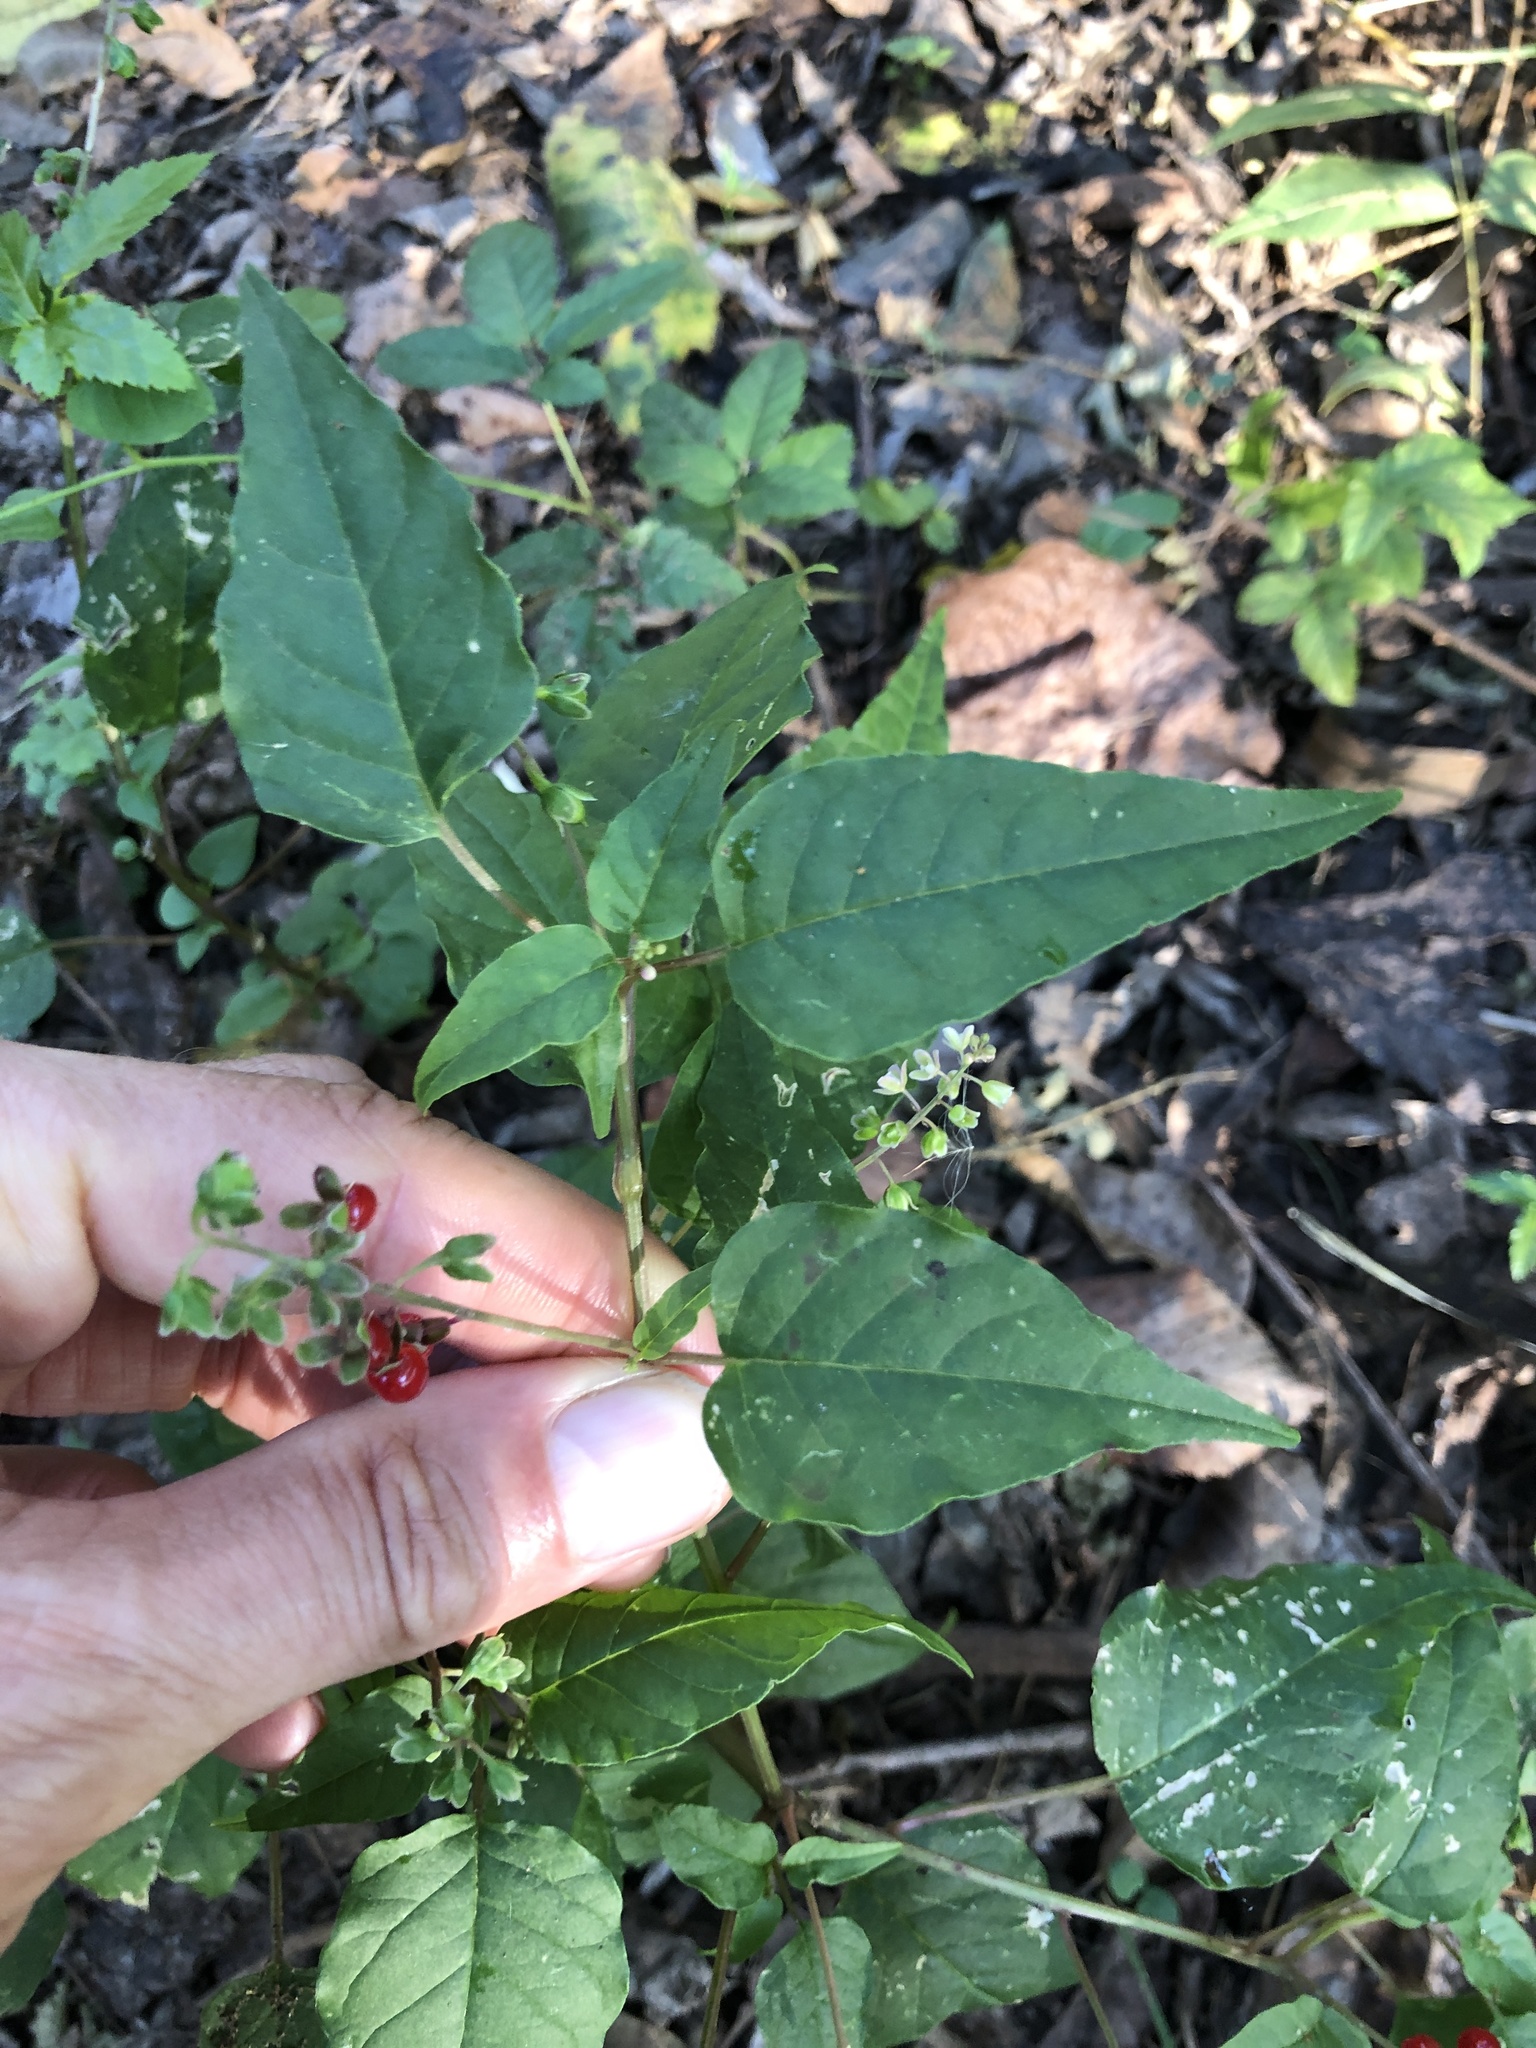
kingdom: Plantae
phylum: Tracheophyta
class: Magnoliopsida
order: Caryophyllales
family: Phytolaccaceae
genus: Rivina
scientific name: Rivina humilis
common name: Rougeplant
